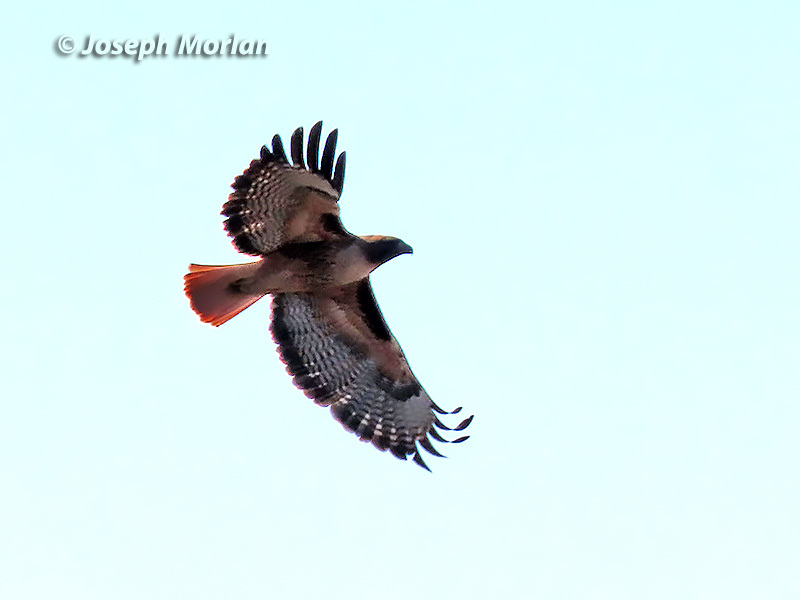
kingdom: Animalia
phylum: Chordata
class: Aves
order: Accipitriformes
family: Accipitridae
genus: Buteo
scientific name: Buteo jamaicensis
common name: Red-tailed hawk
